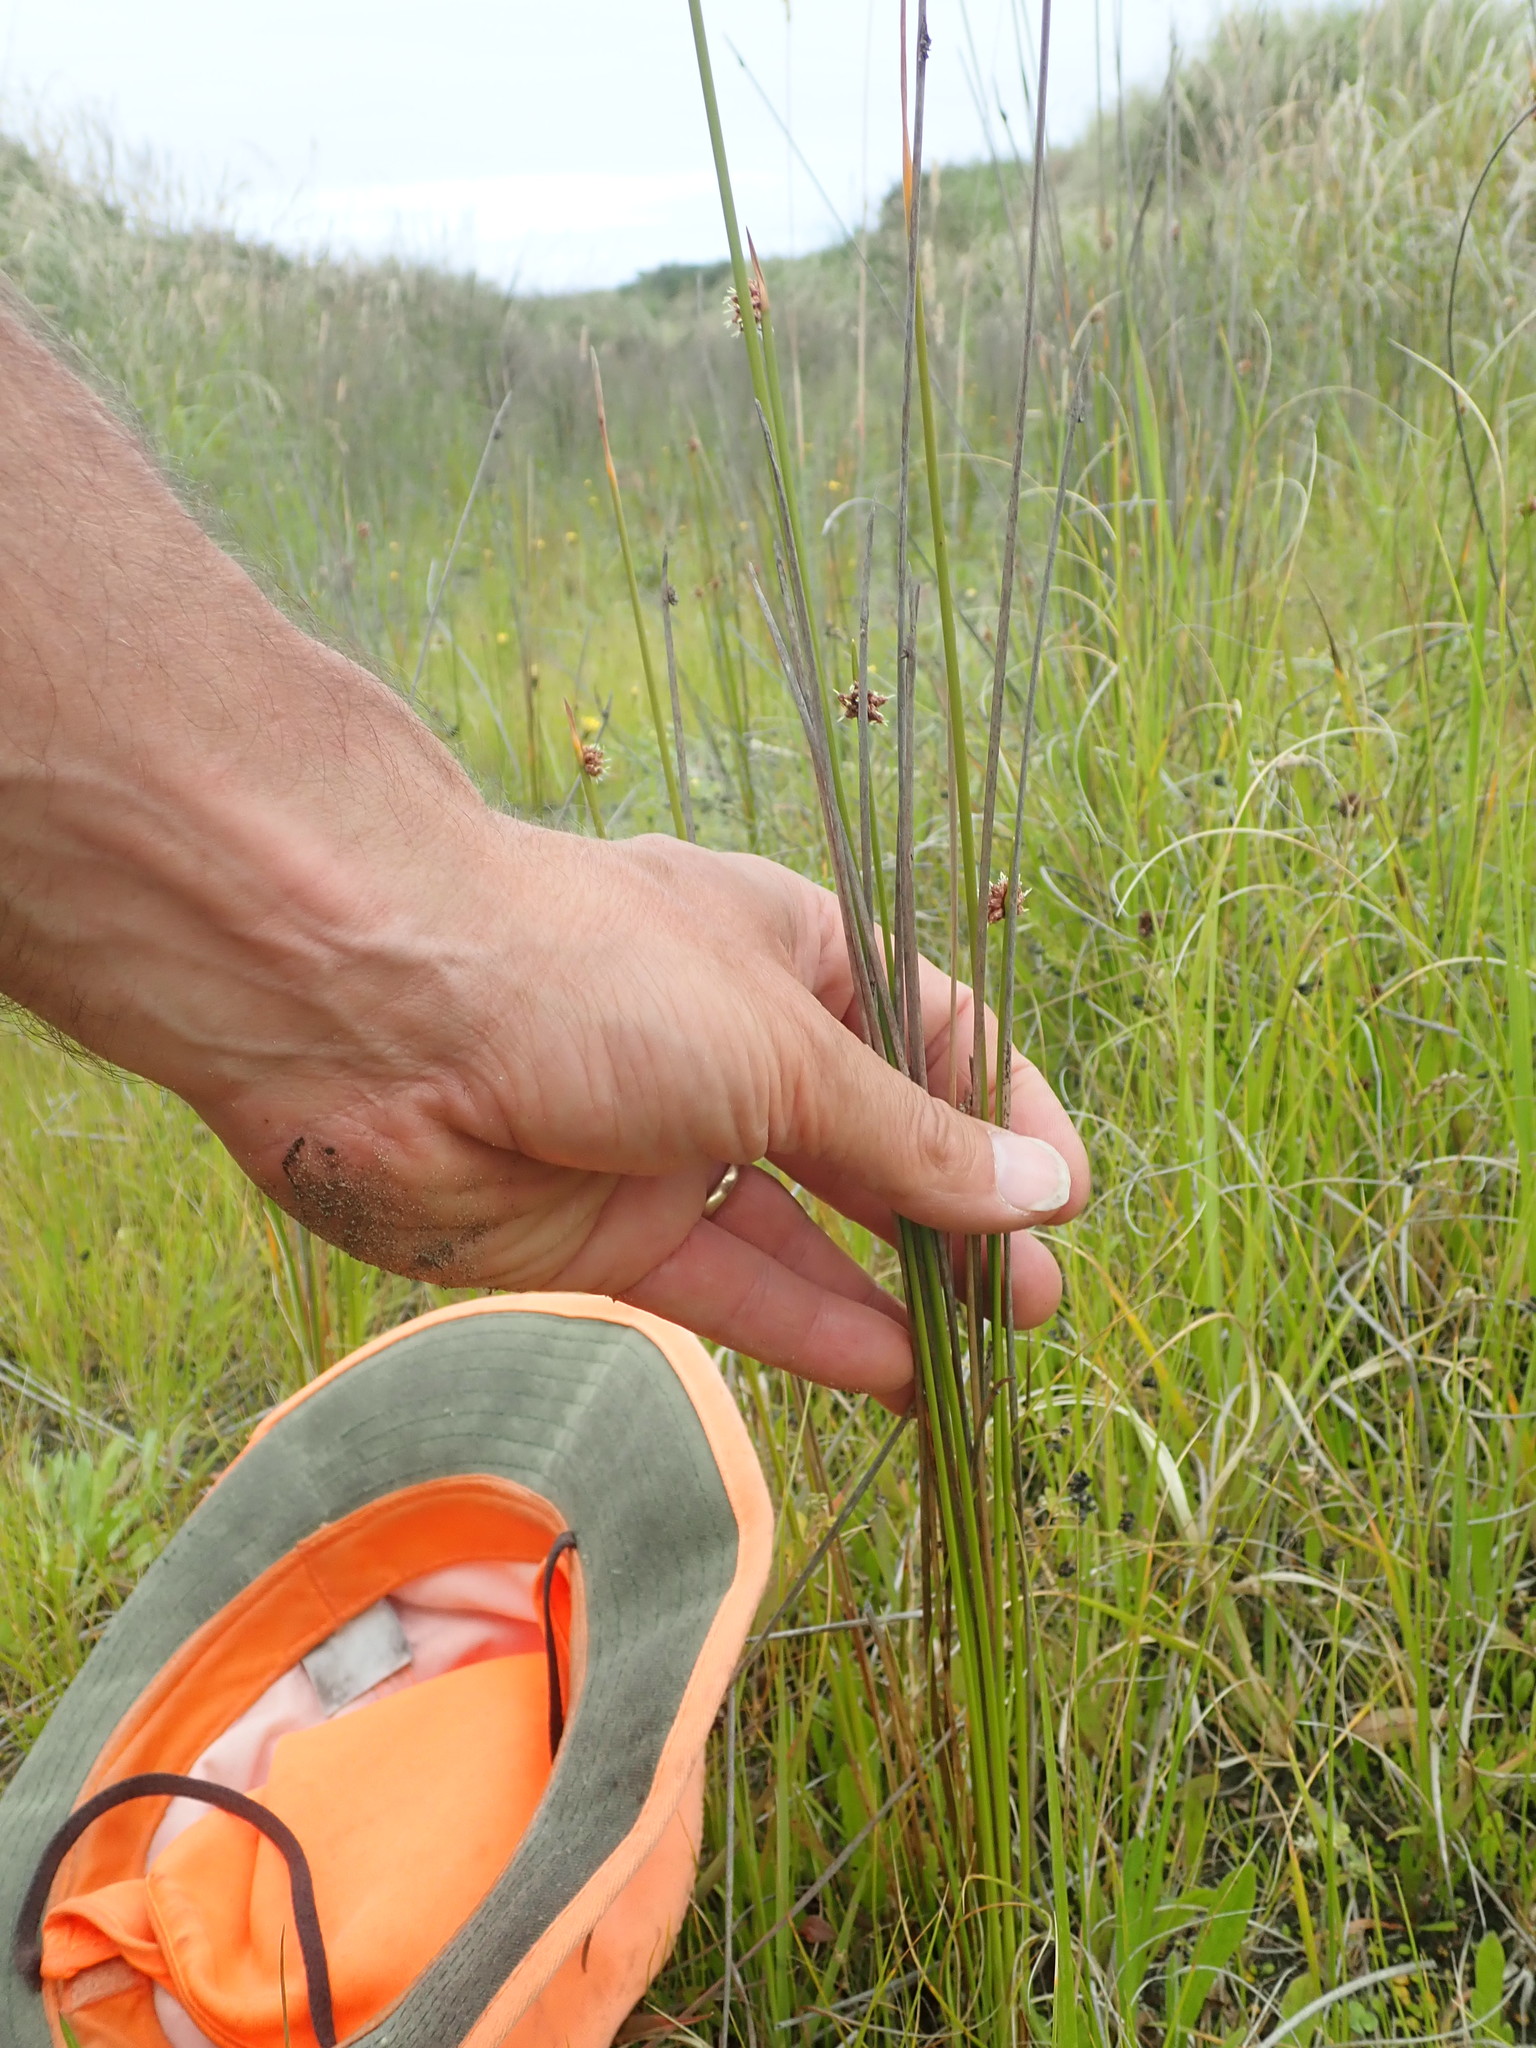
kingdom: Plantae
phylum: Tracheophyta
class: Liliopsida
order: Poales
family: Cyperaceae
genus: Ficinia
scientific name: Ficinia nodosa
